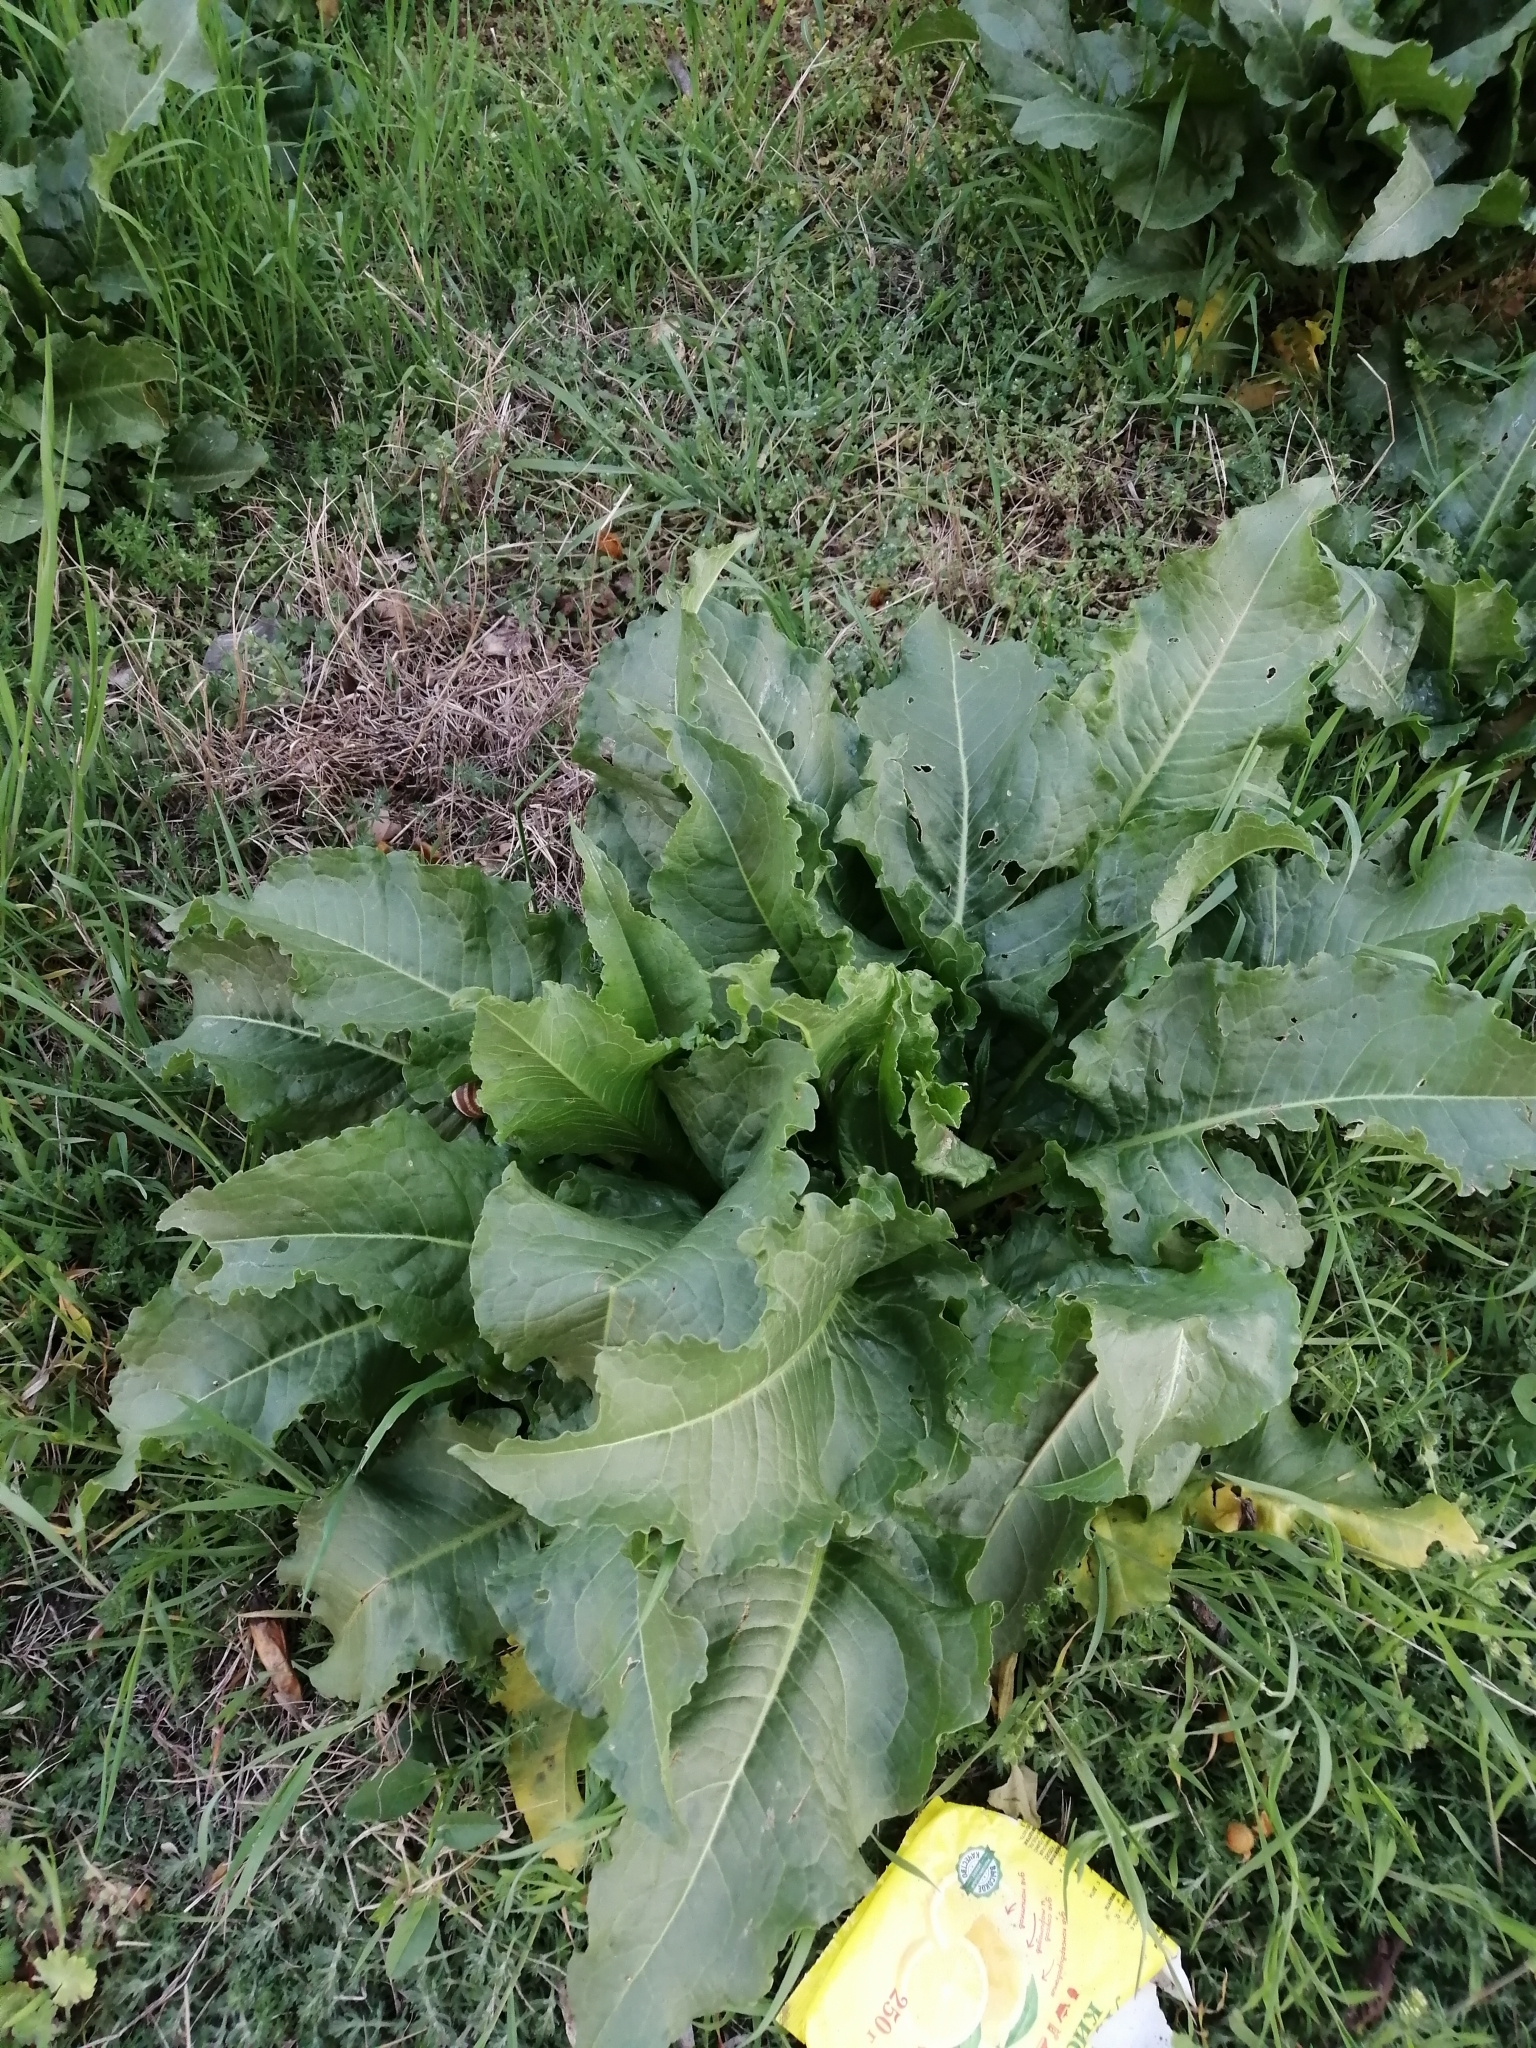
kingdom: Plantae
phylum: Tracheophyta
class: Magnoliopsida
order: Caryophyllales
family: Polygonaceae
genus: Rumex
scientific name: Rumex
